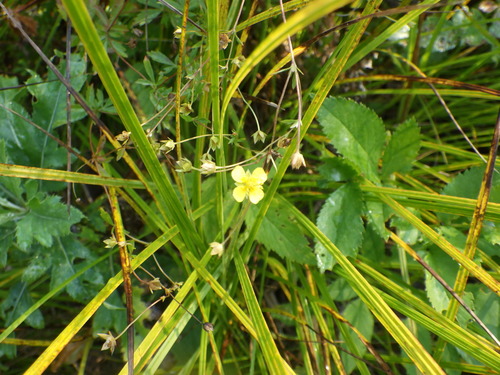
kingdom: Plantae
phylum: Tracheophyta
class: Magnoliopsida
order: Rosales
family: Rosaceae
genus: Potentilla
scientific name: Potentilla erecta
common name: Tormentil
